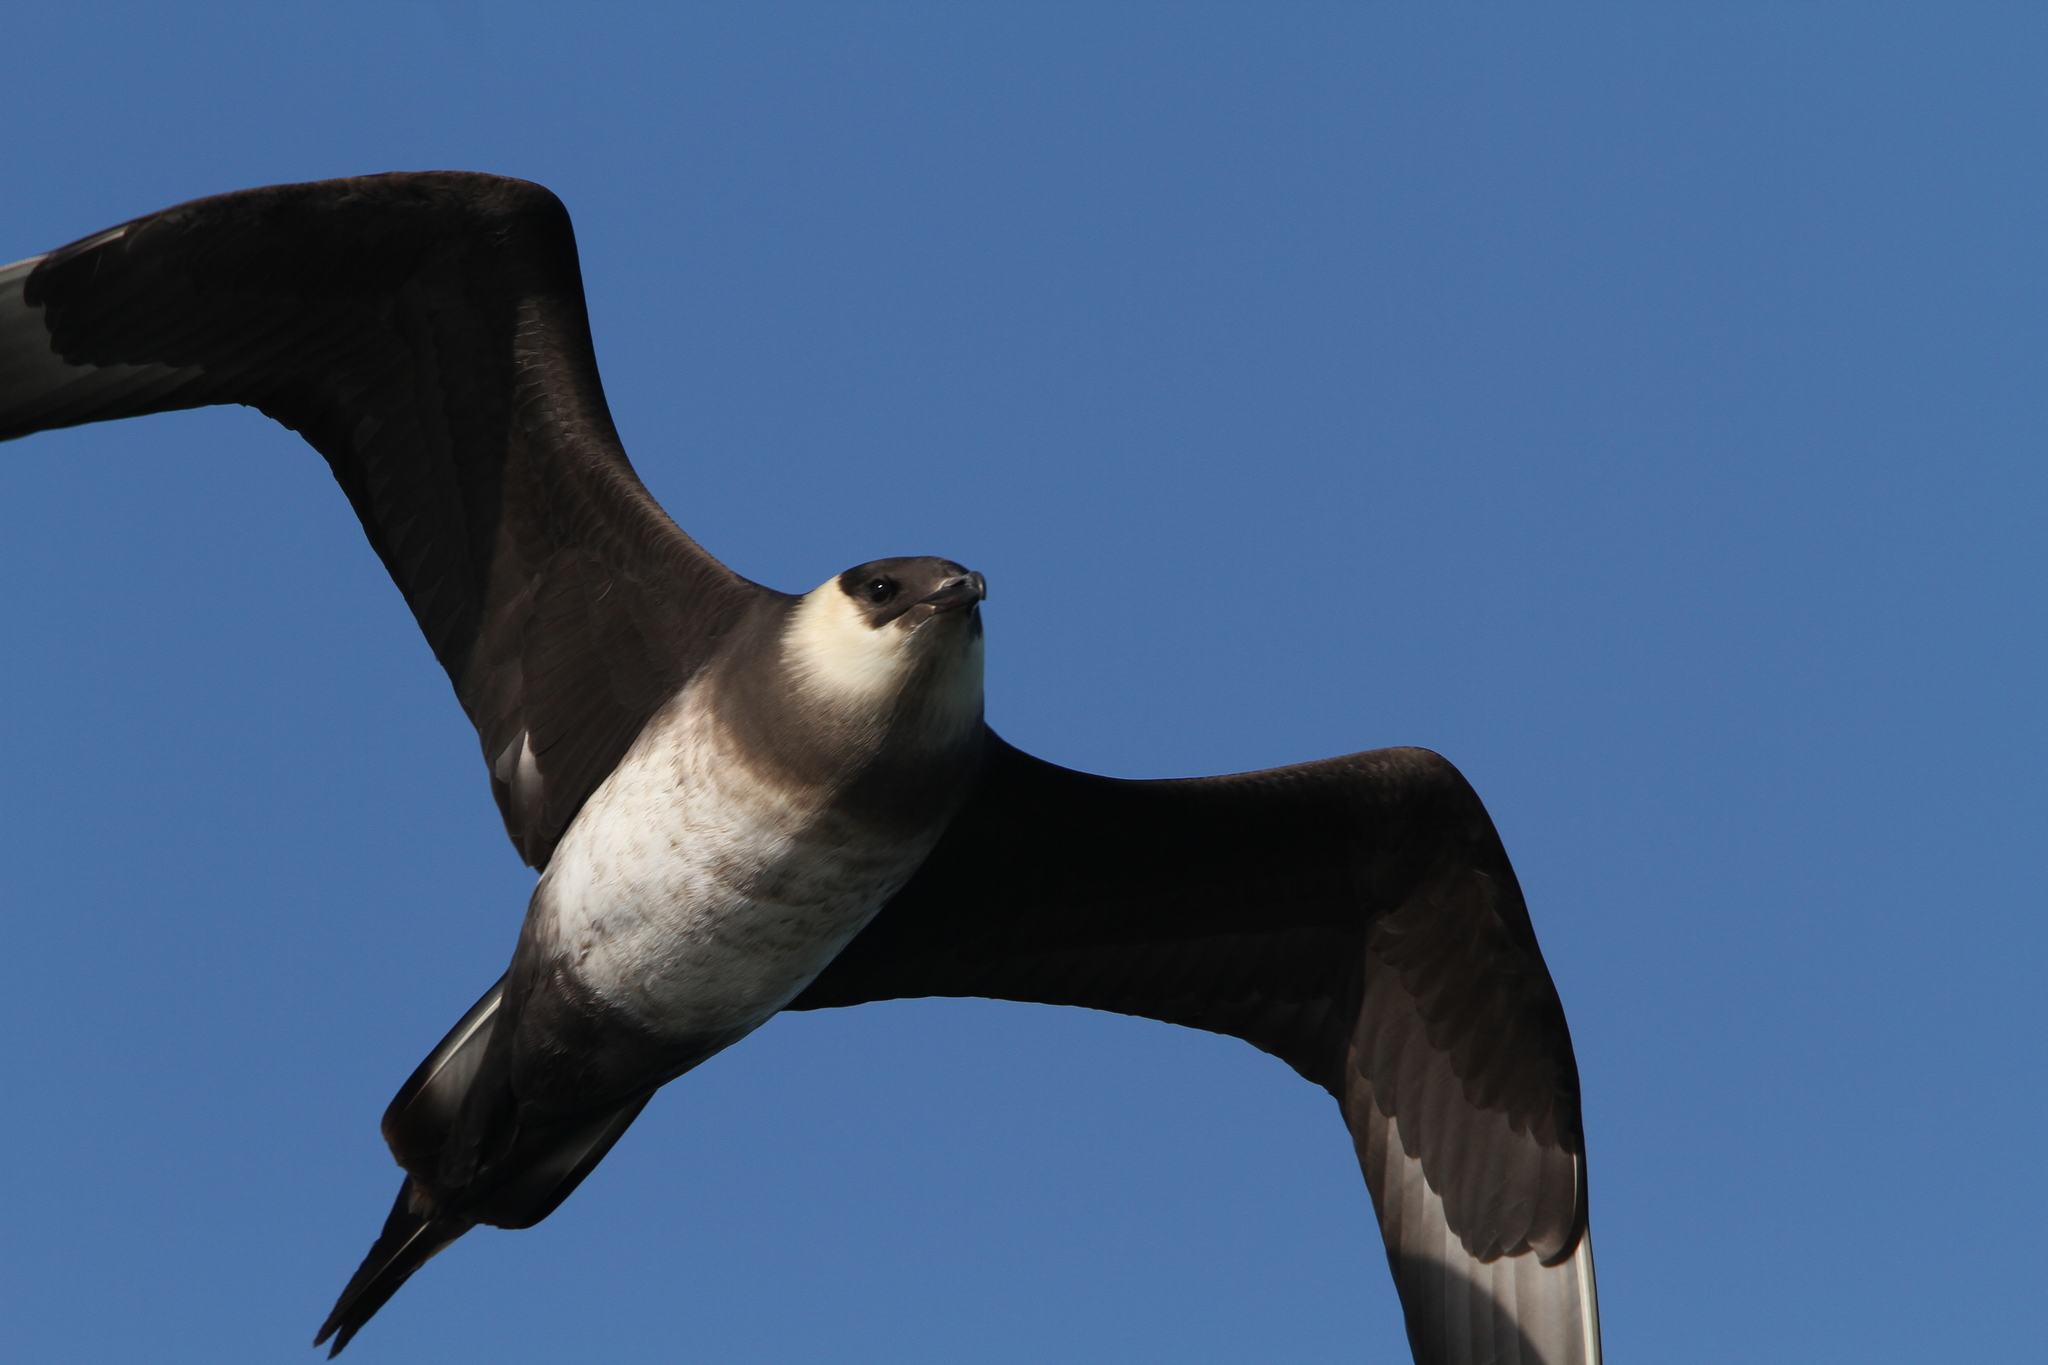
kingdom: Animalia
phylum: Chordata
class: Aves
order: Charadriiformes
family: Stercorariidae
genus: Stercorarius
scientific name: Stercorarius parasiticus
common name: Parasitic jaeger
